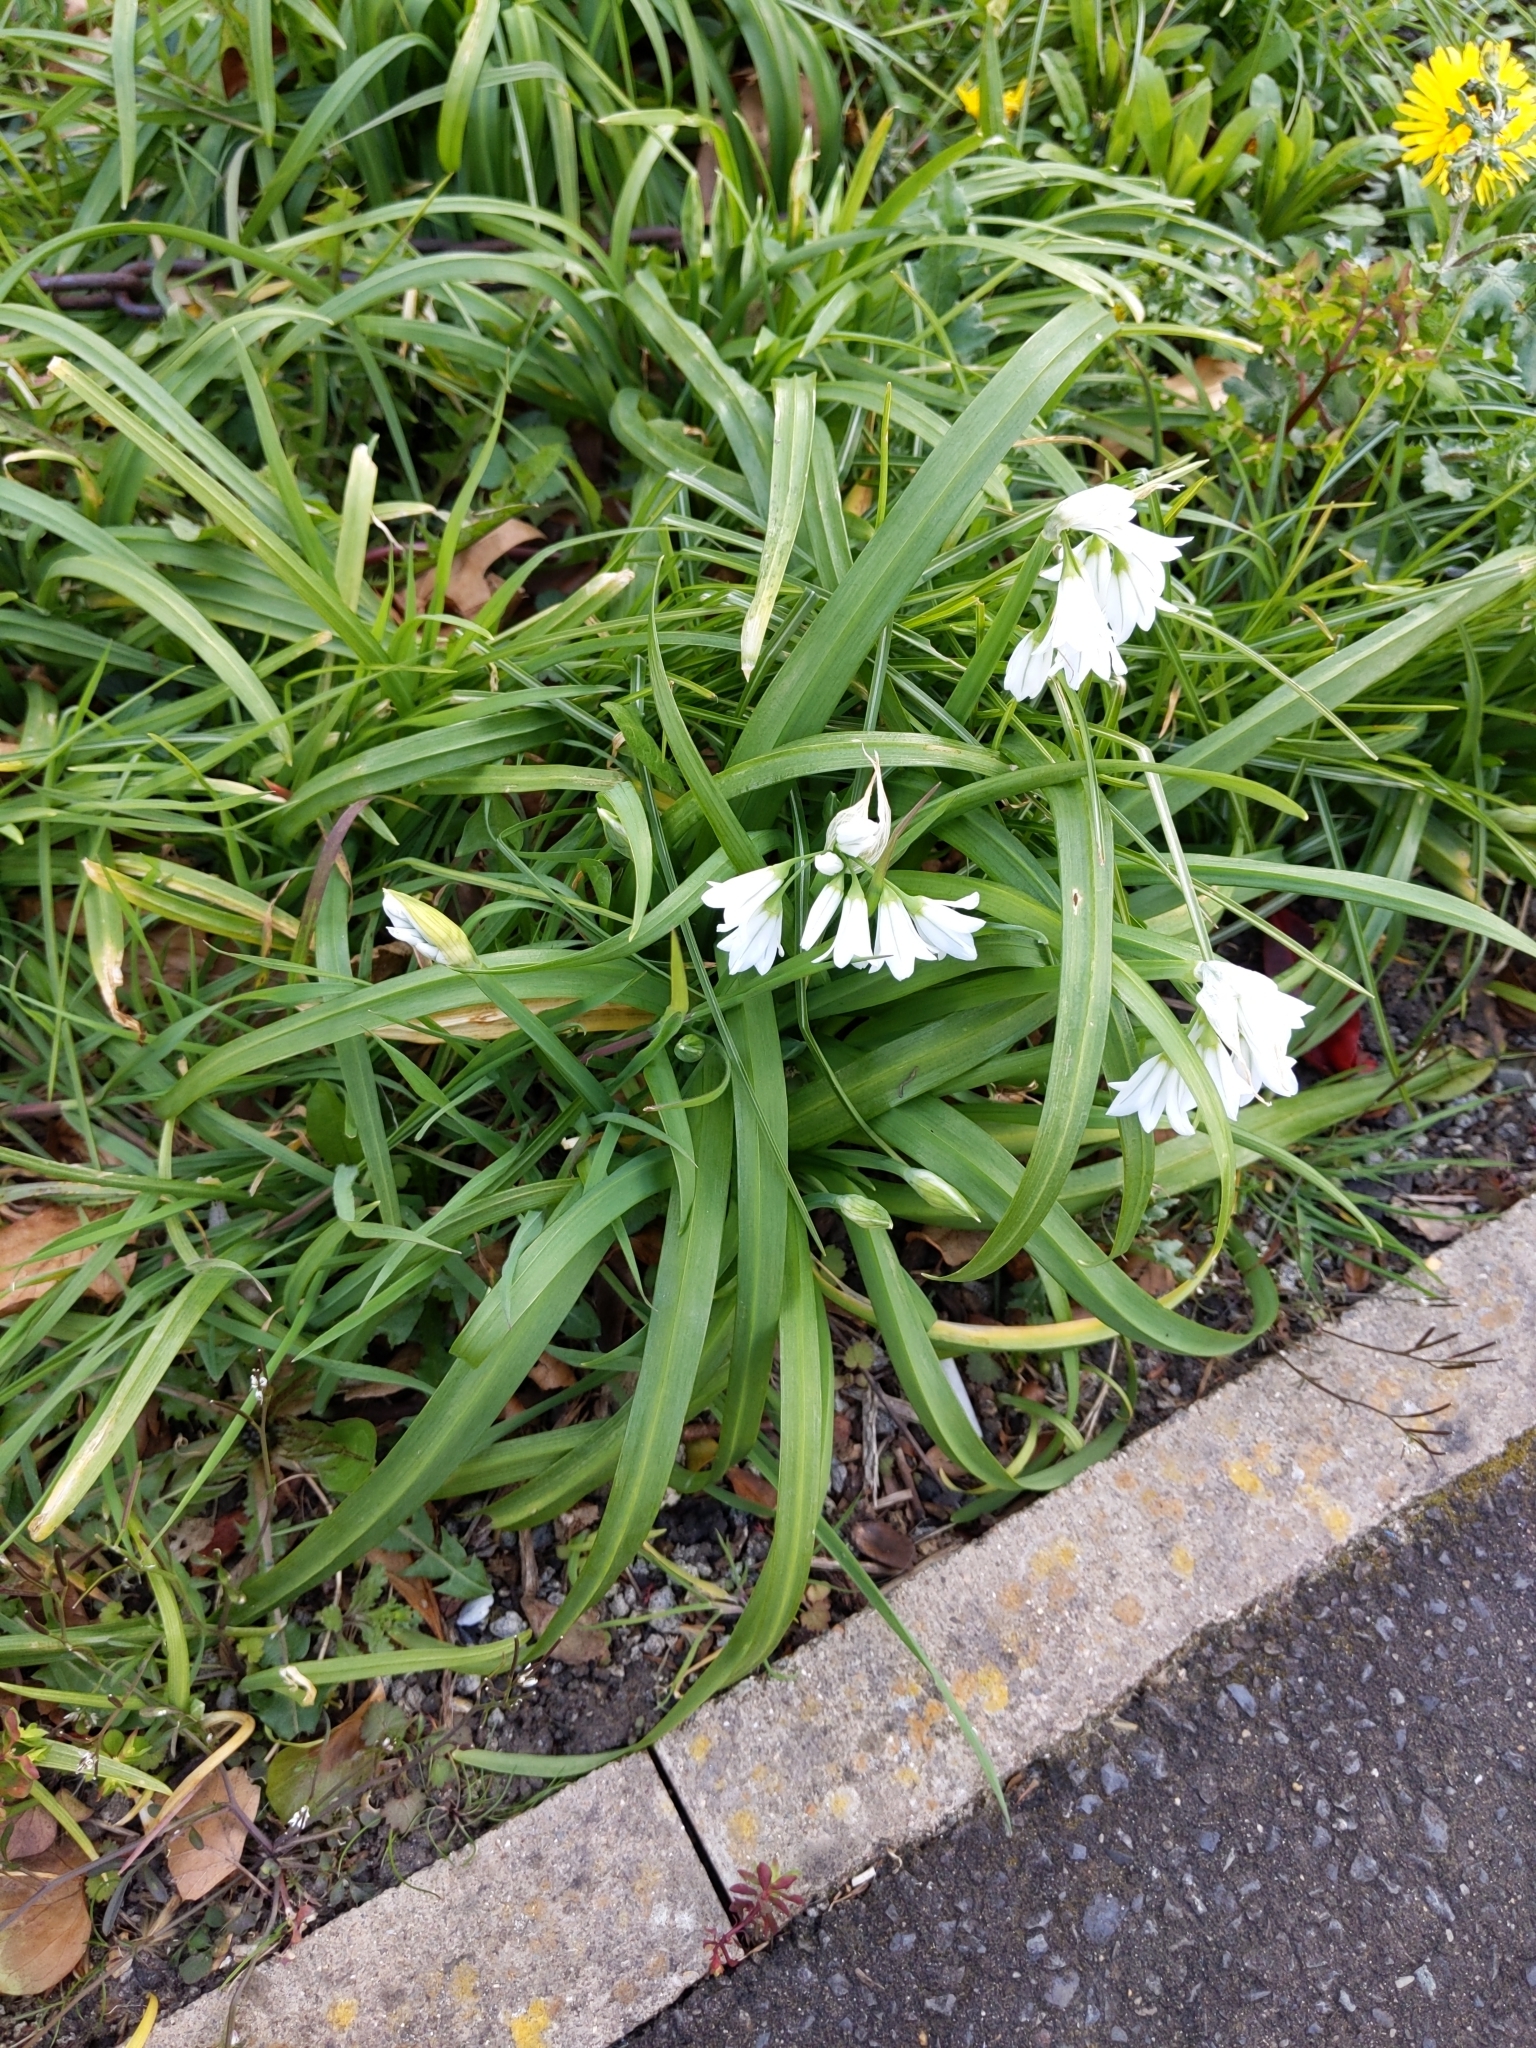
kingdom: Plantae
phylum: Tracheophyta
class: Liliopsida
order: Asparagales
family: Amaryllidaceae
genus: Allium
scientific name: Allium triquetrum
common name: Three-cornered garlic
